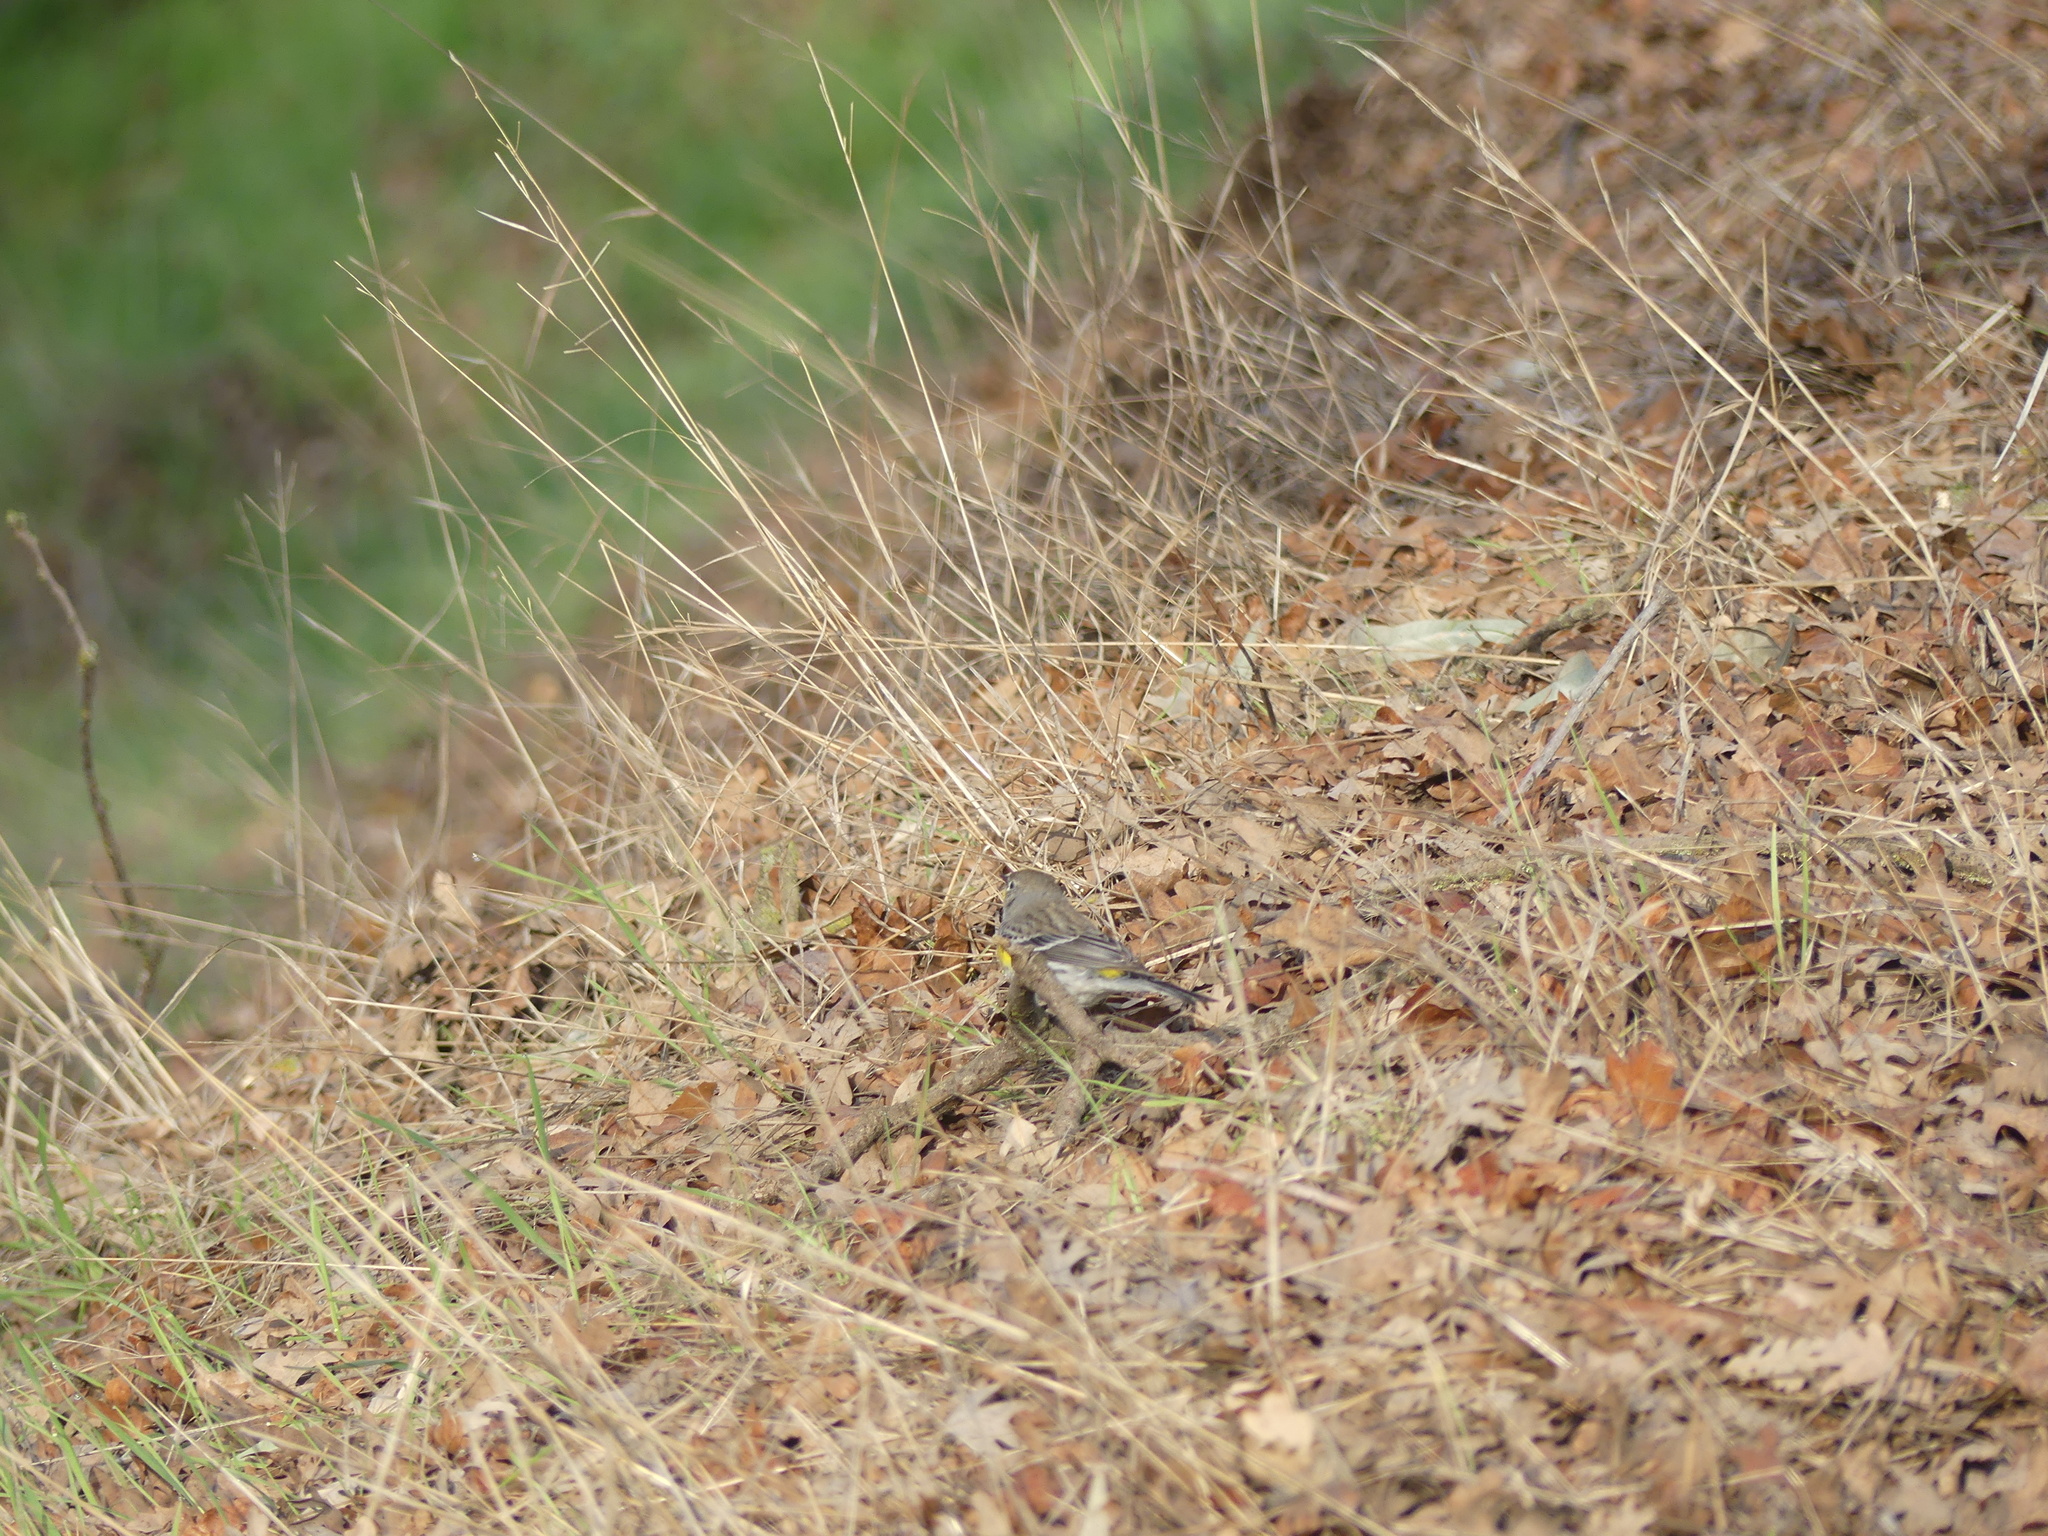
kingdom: Animalia
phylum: Chordata
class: Aves
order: Passeriformes
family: Parulidae
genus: Setophaga
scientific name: Setophaga coronata
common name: Myrtle warbler
